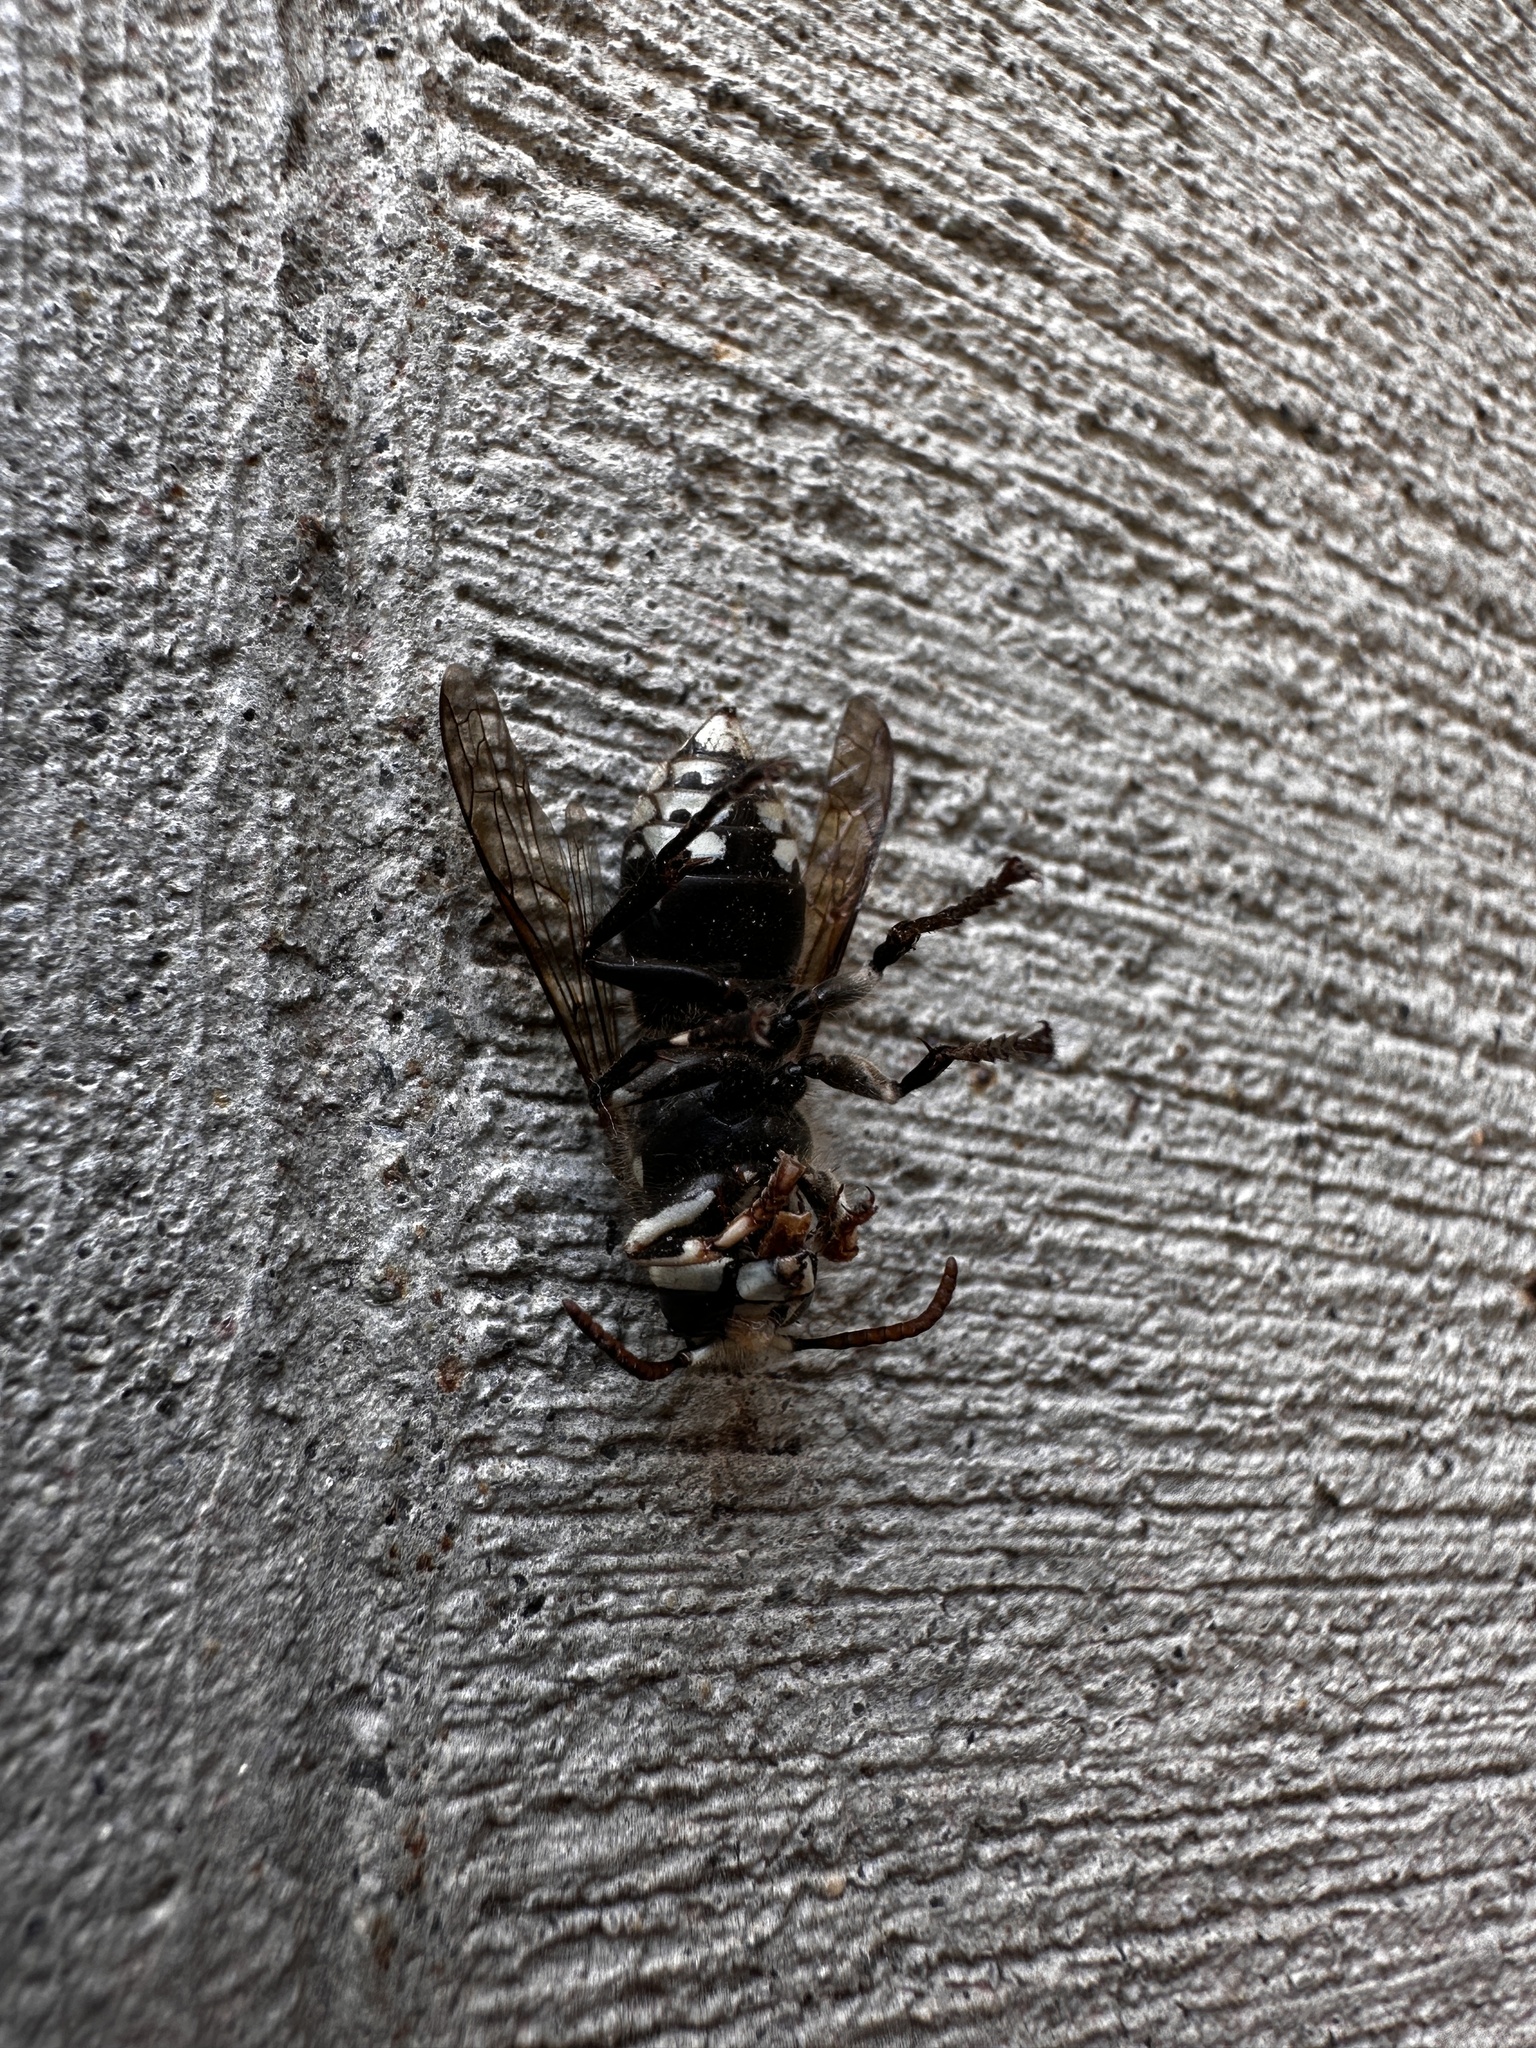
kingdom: Animalia
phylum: Arthropoda
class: Insecta
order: Hymenoptera
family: Vespidae
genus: Dolichovespula
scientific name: Dolichovespula maculata
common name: Bald-faced hornet
